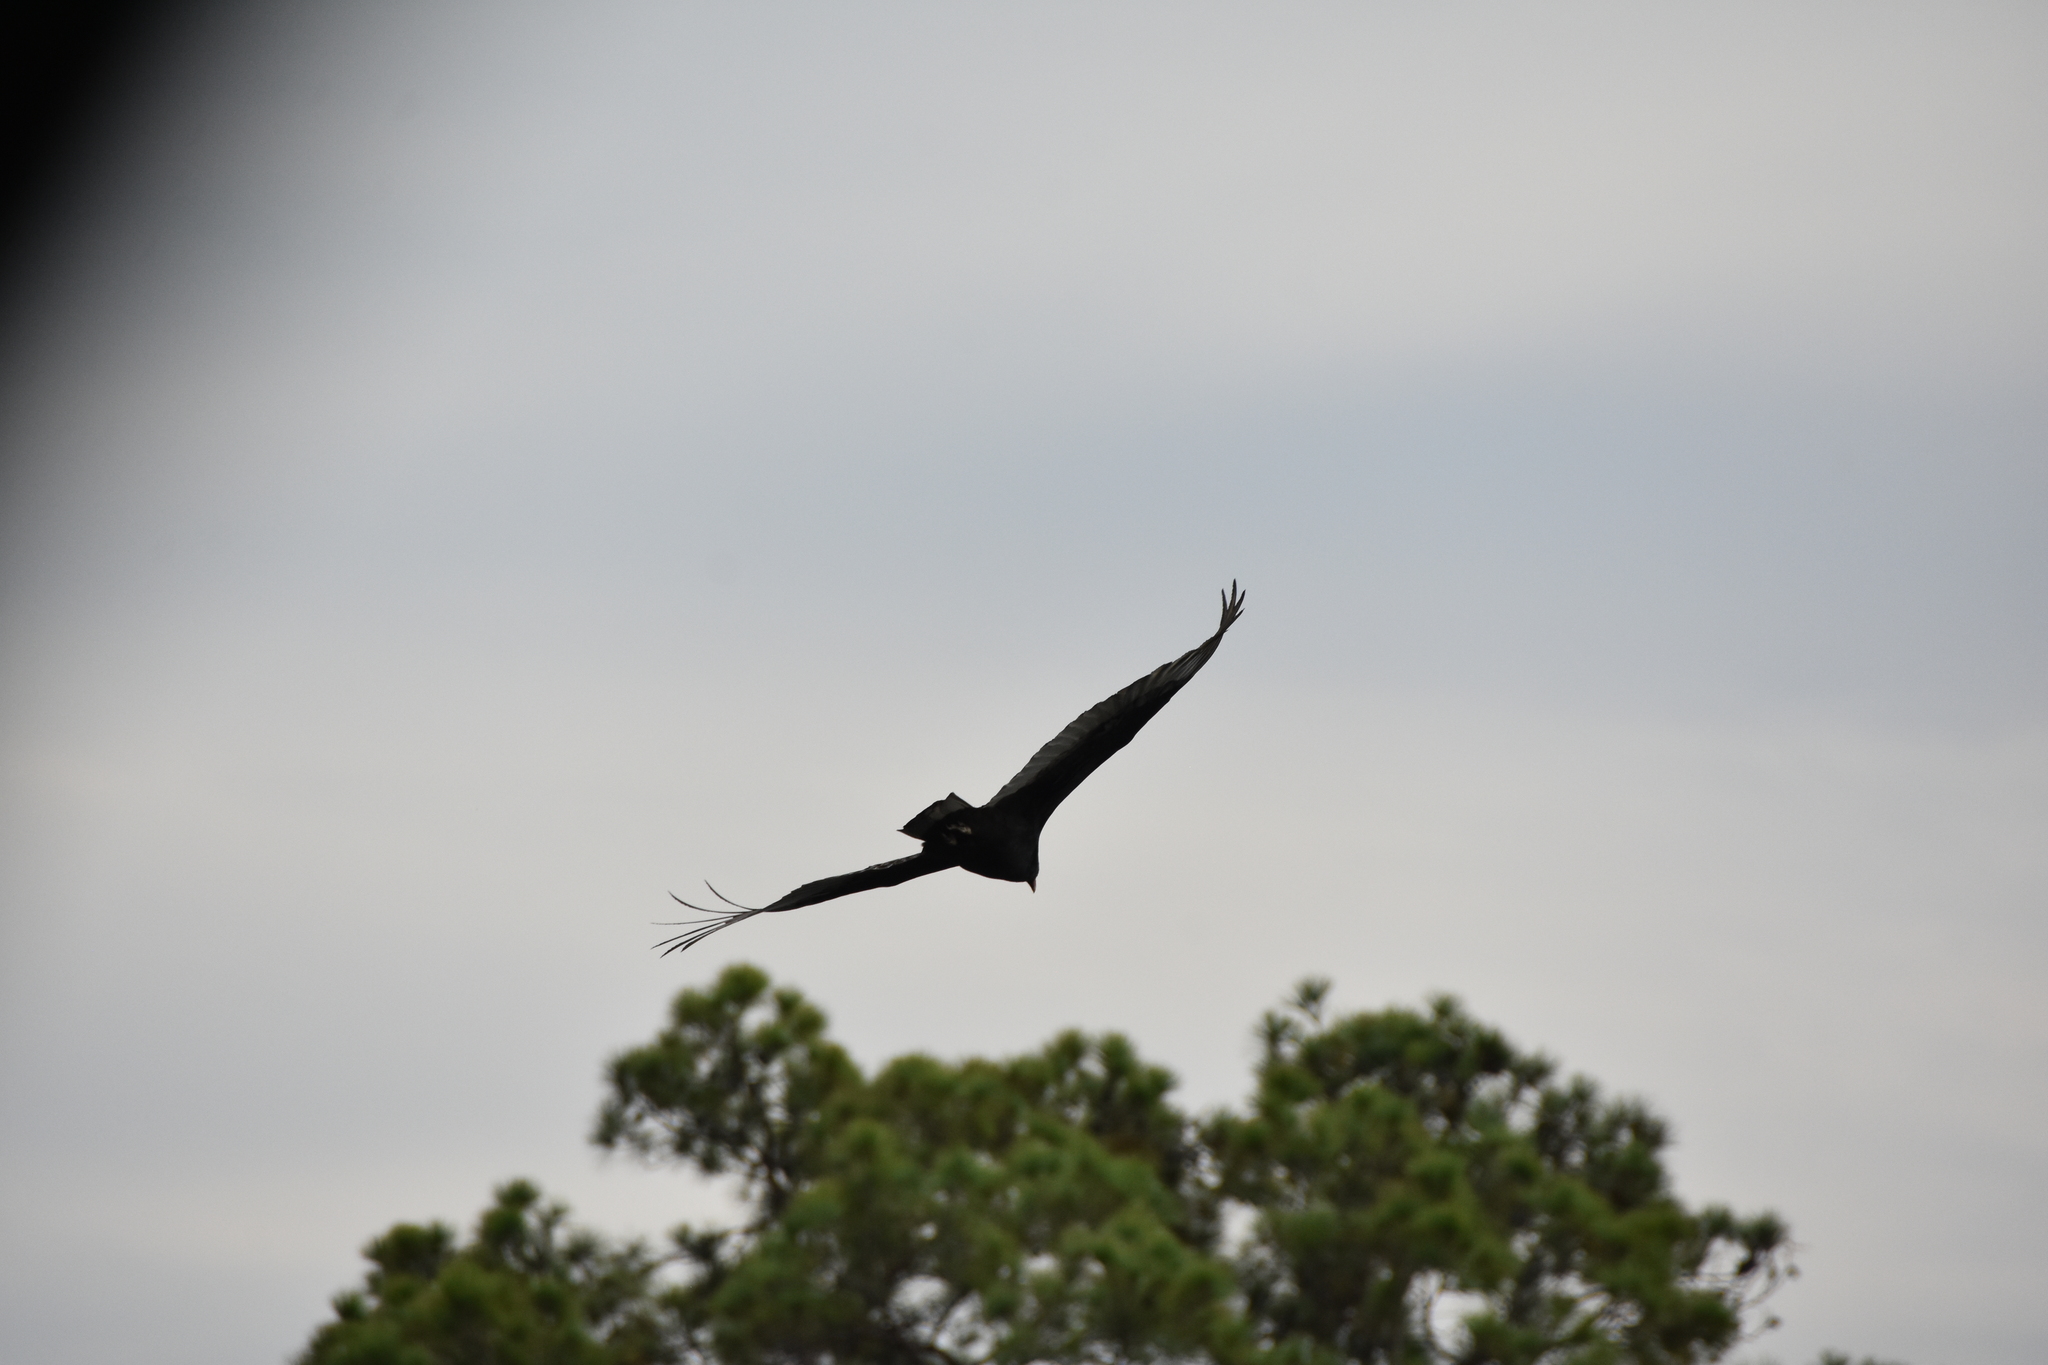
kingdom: Animalia
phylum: Chordata
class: Aves
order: Accipitriformes
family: Cathartidae
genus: Cathartes
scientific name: Cathartes aura
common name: Turkey vulture
